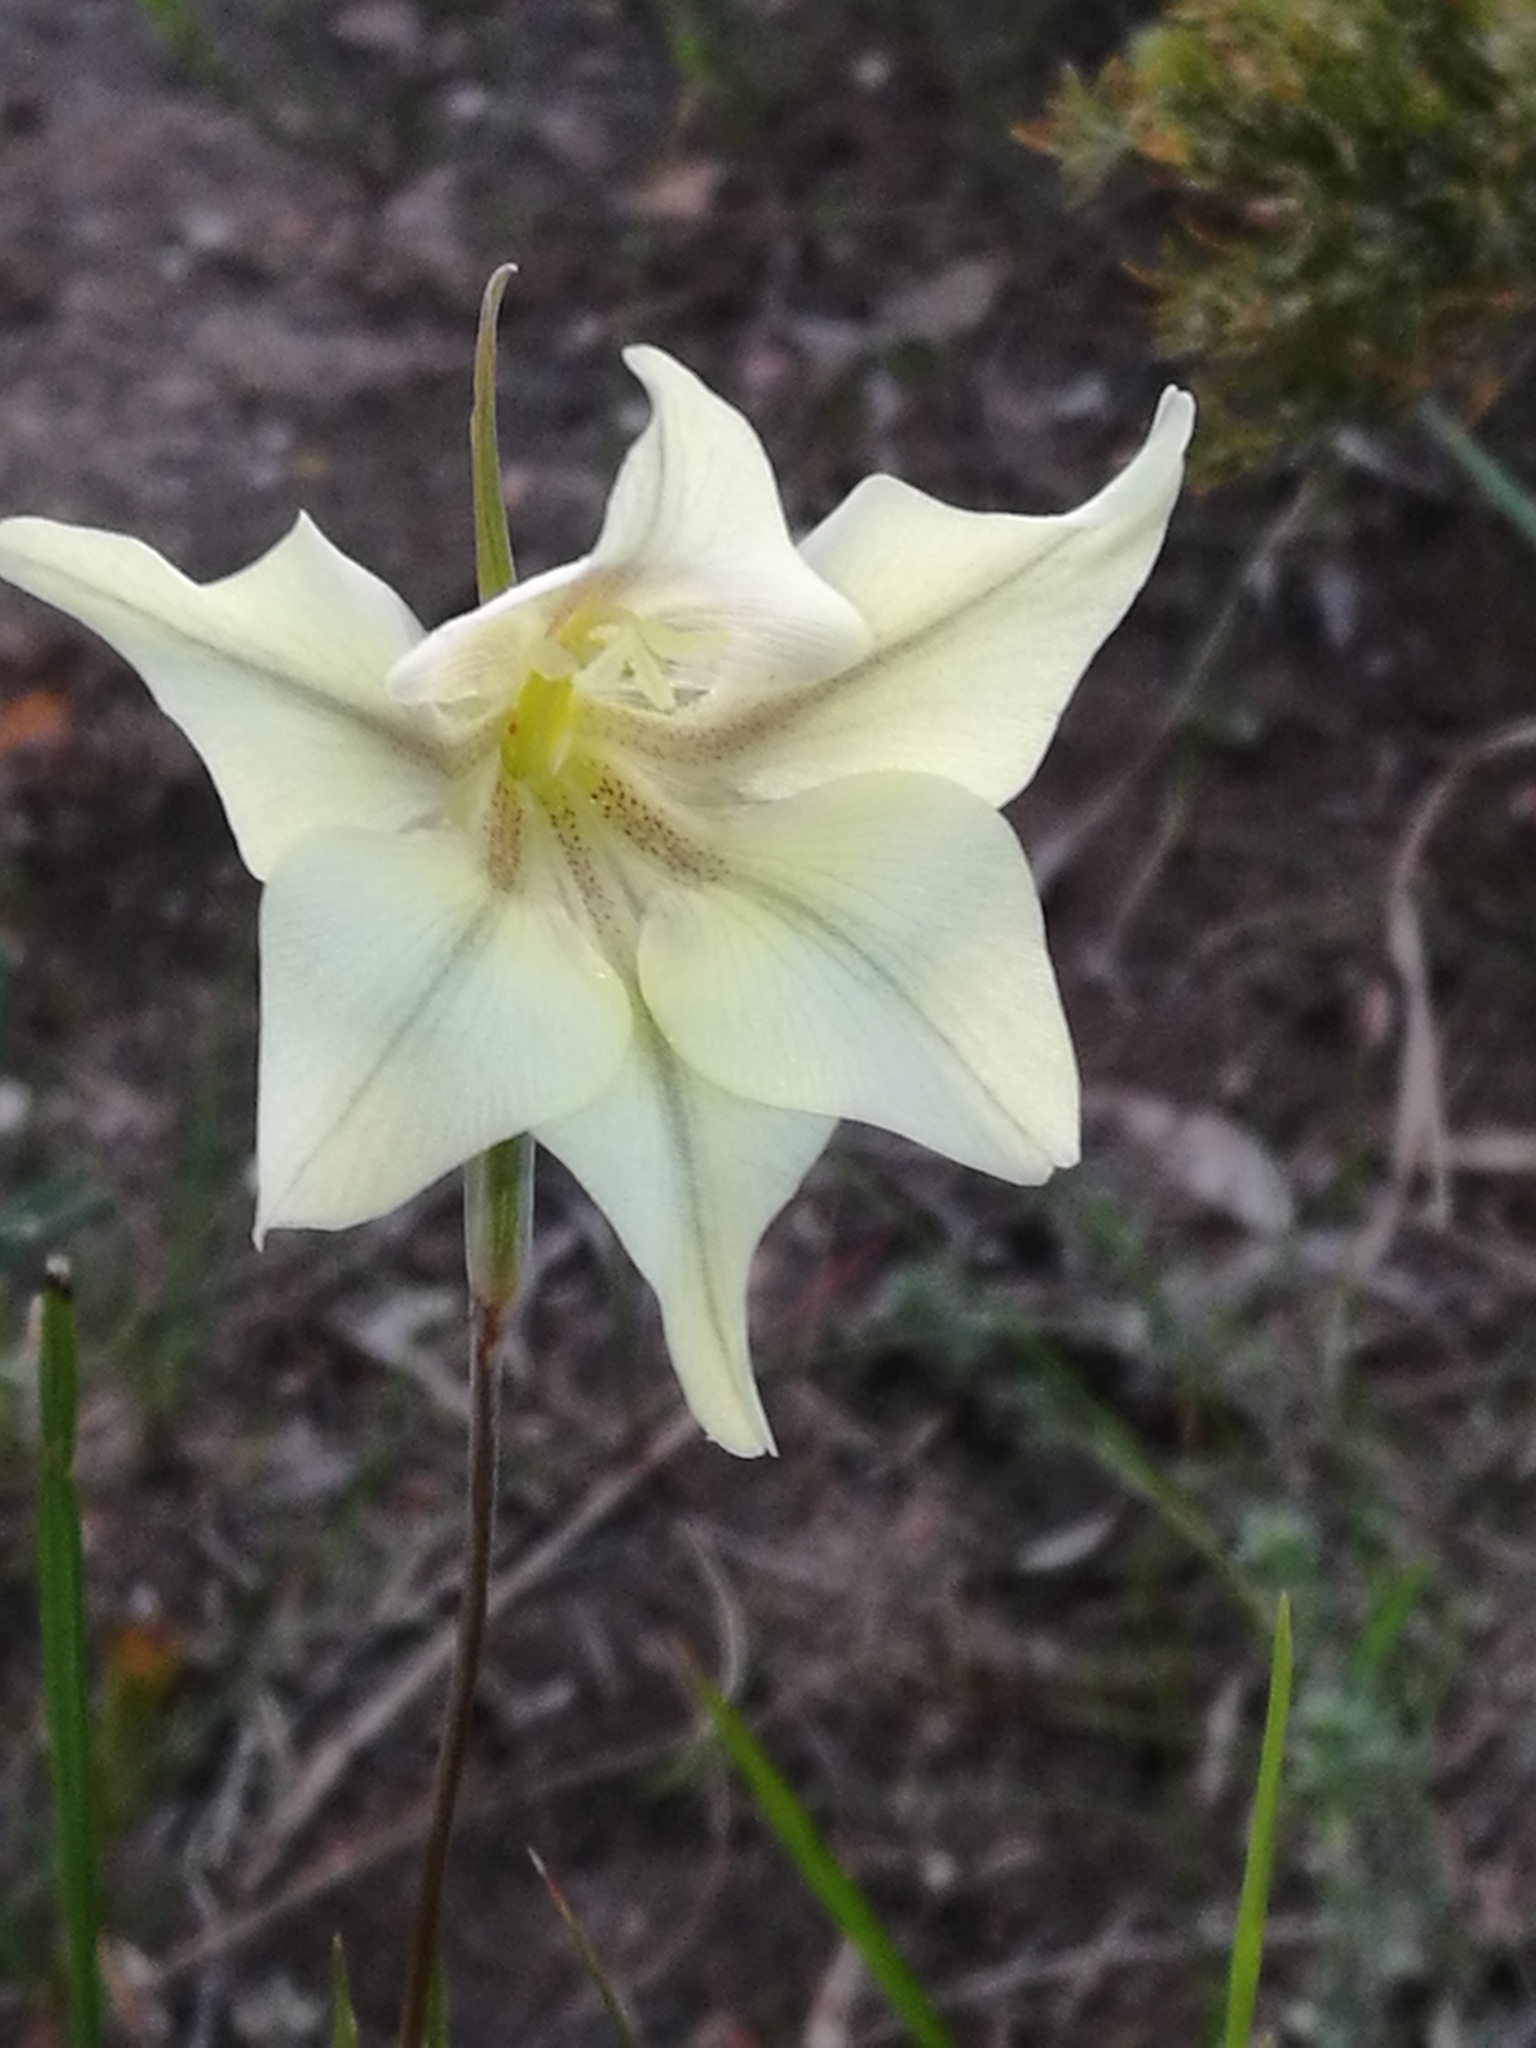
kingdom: Plantae
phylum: Tracheophyta
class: Liliopsida
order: Asparagales
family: Iridaceae
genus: Gladiolus
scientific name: Gladiolus tristis
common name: Ever-flowering gladiolus
